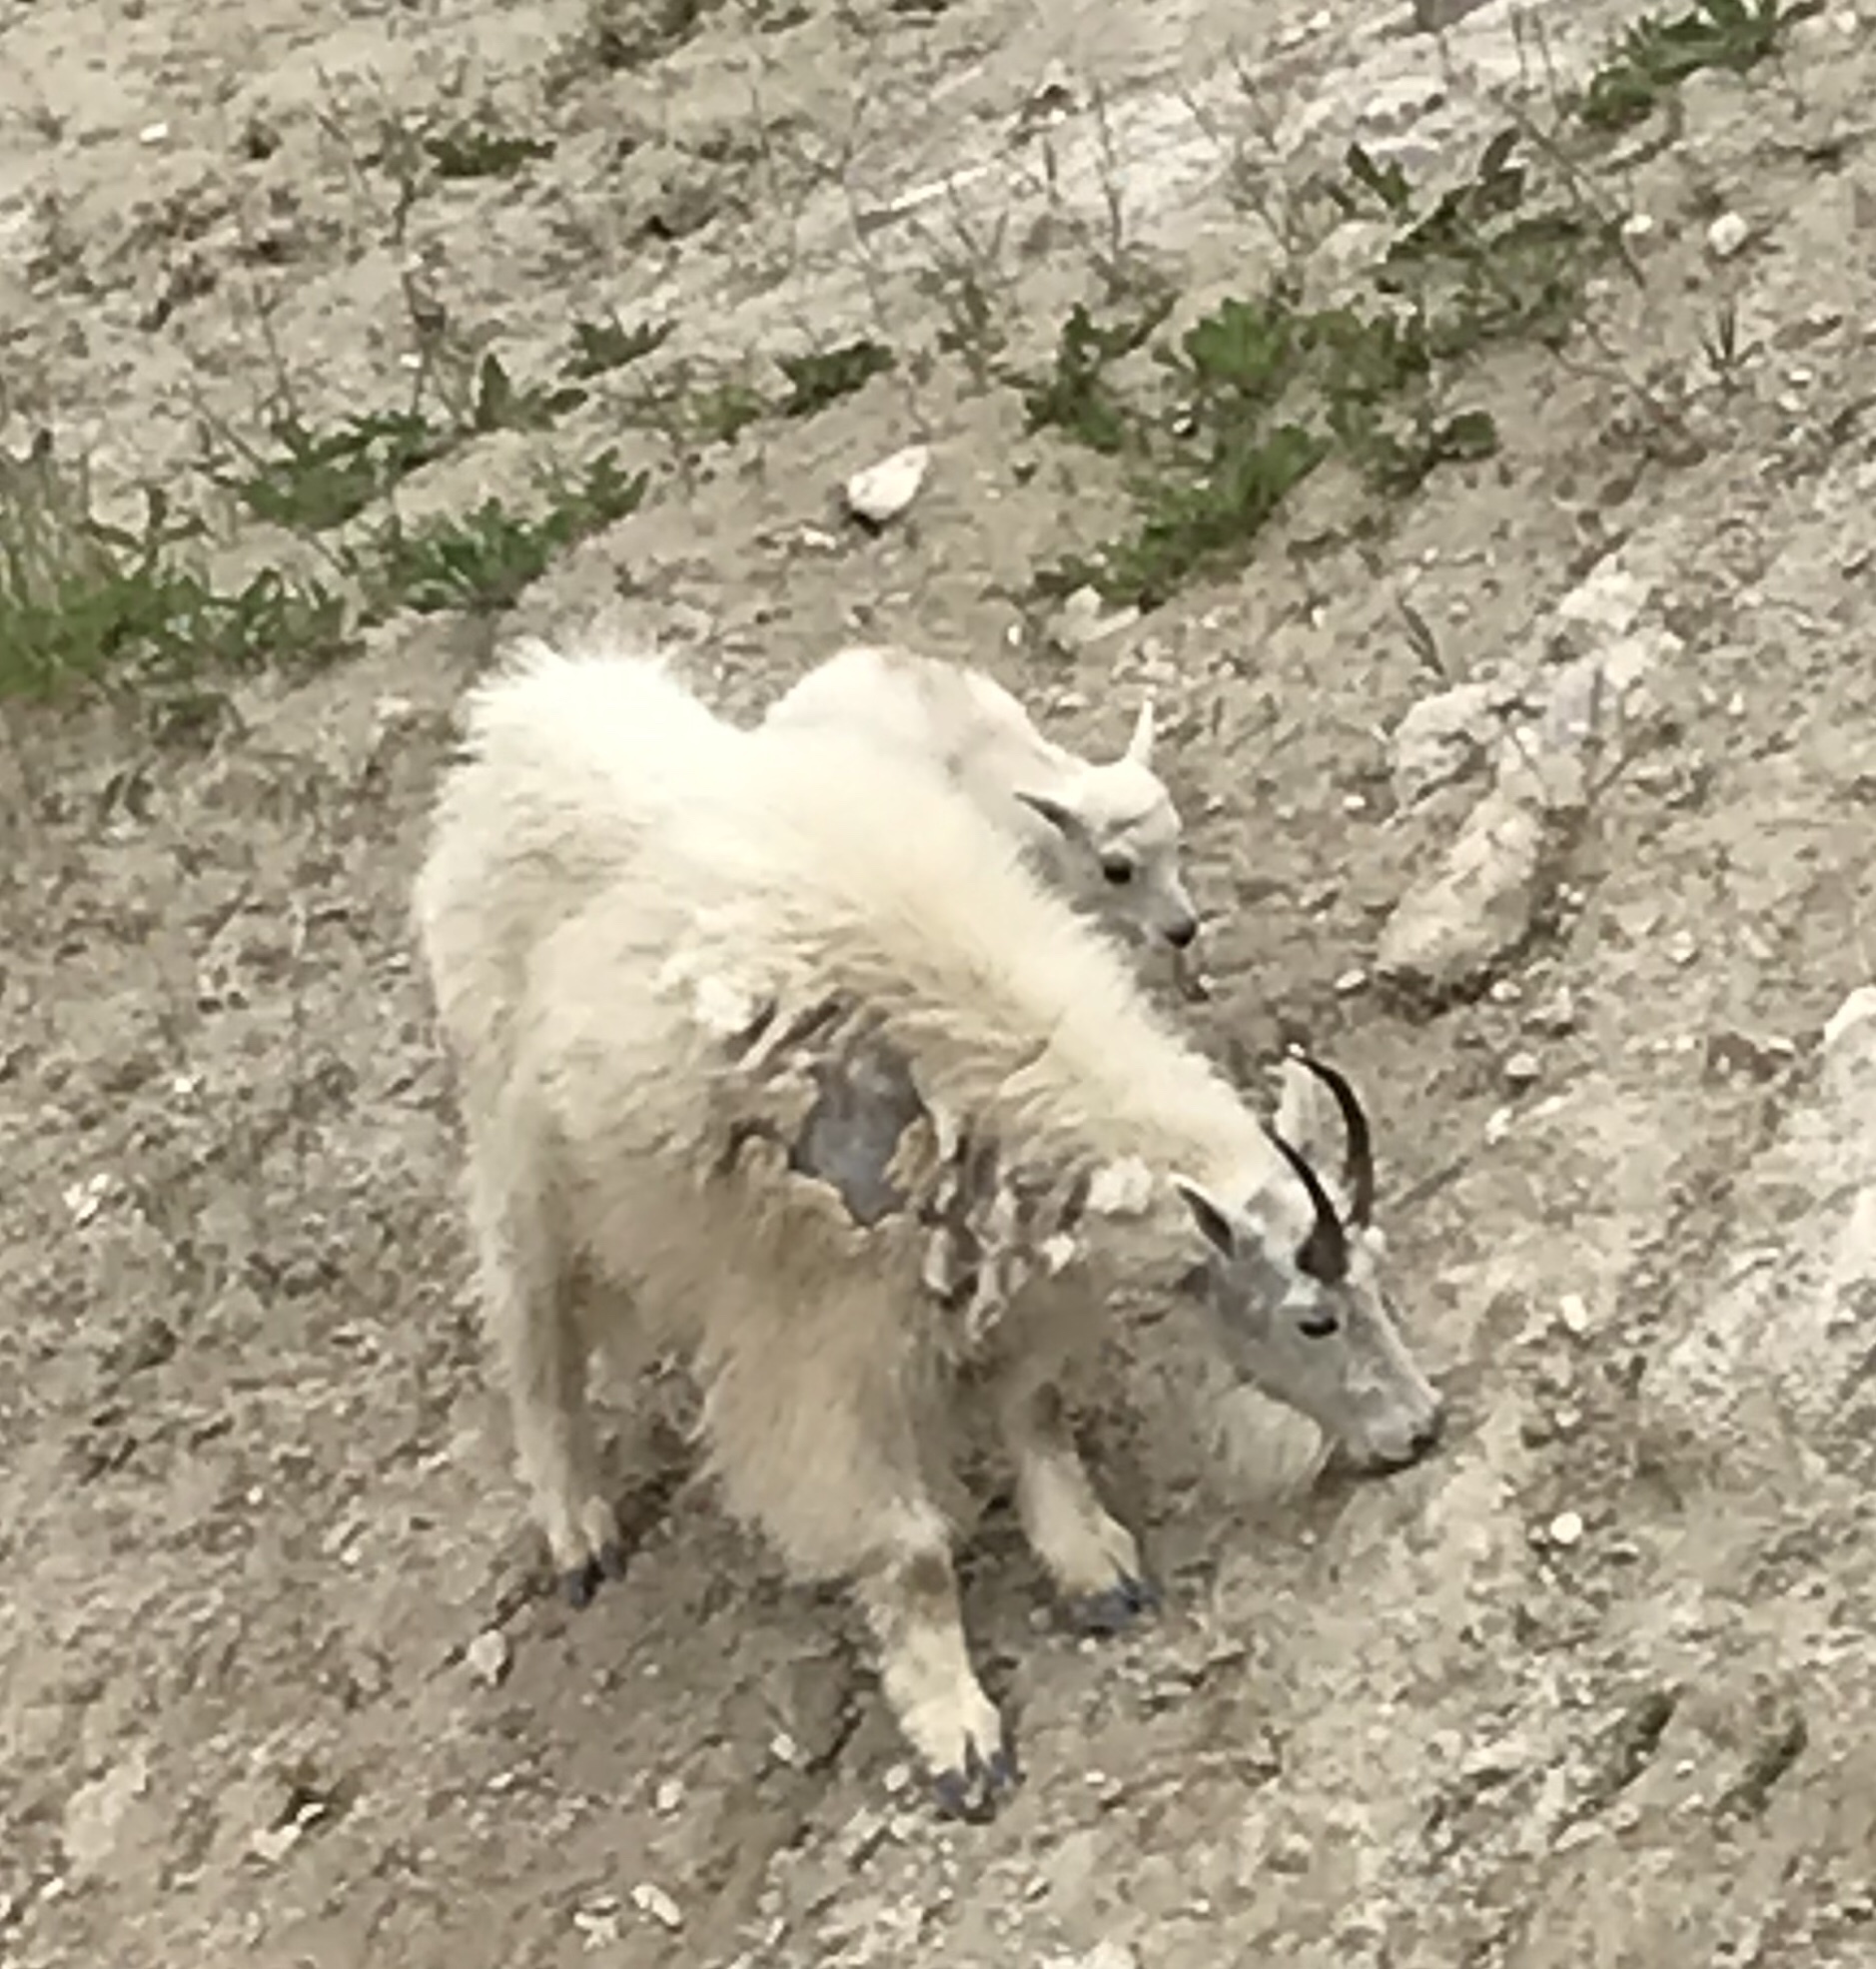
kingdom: Animalia
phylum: Chordata
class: Mammalia
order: Artiodactyla
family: Bovidae
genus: Oreamnos
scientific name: Oreamnos americanus
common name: Mountain goat
